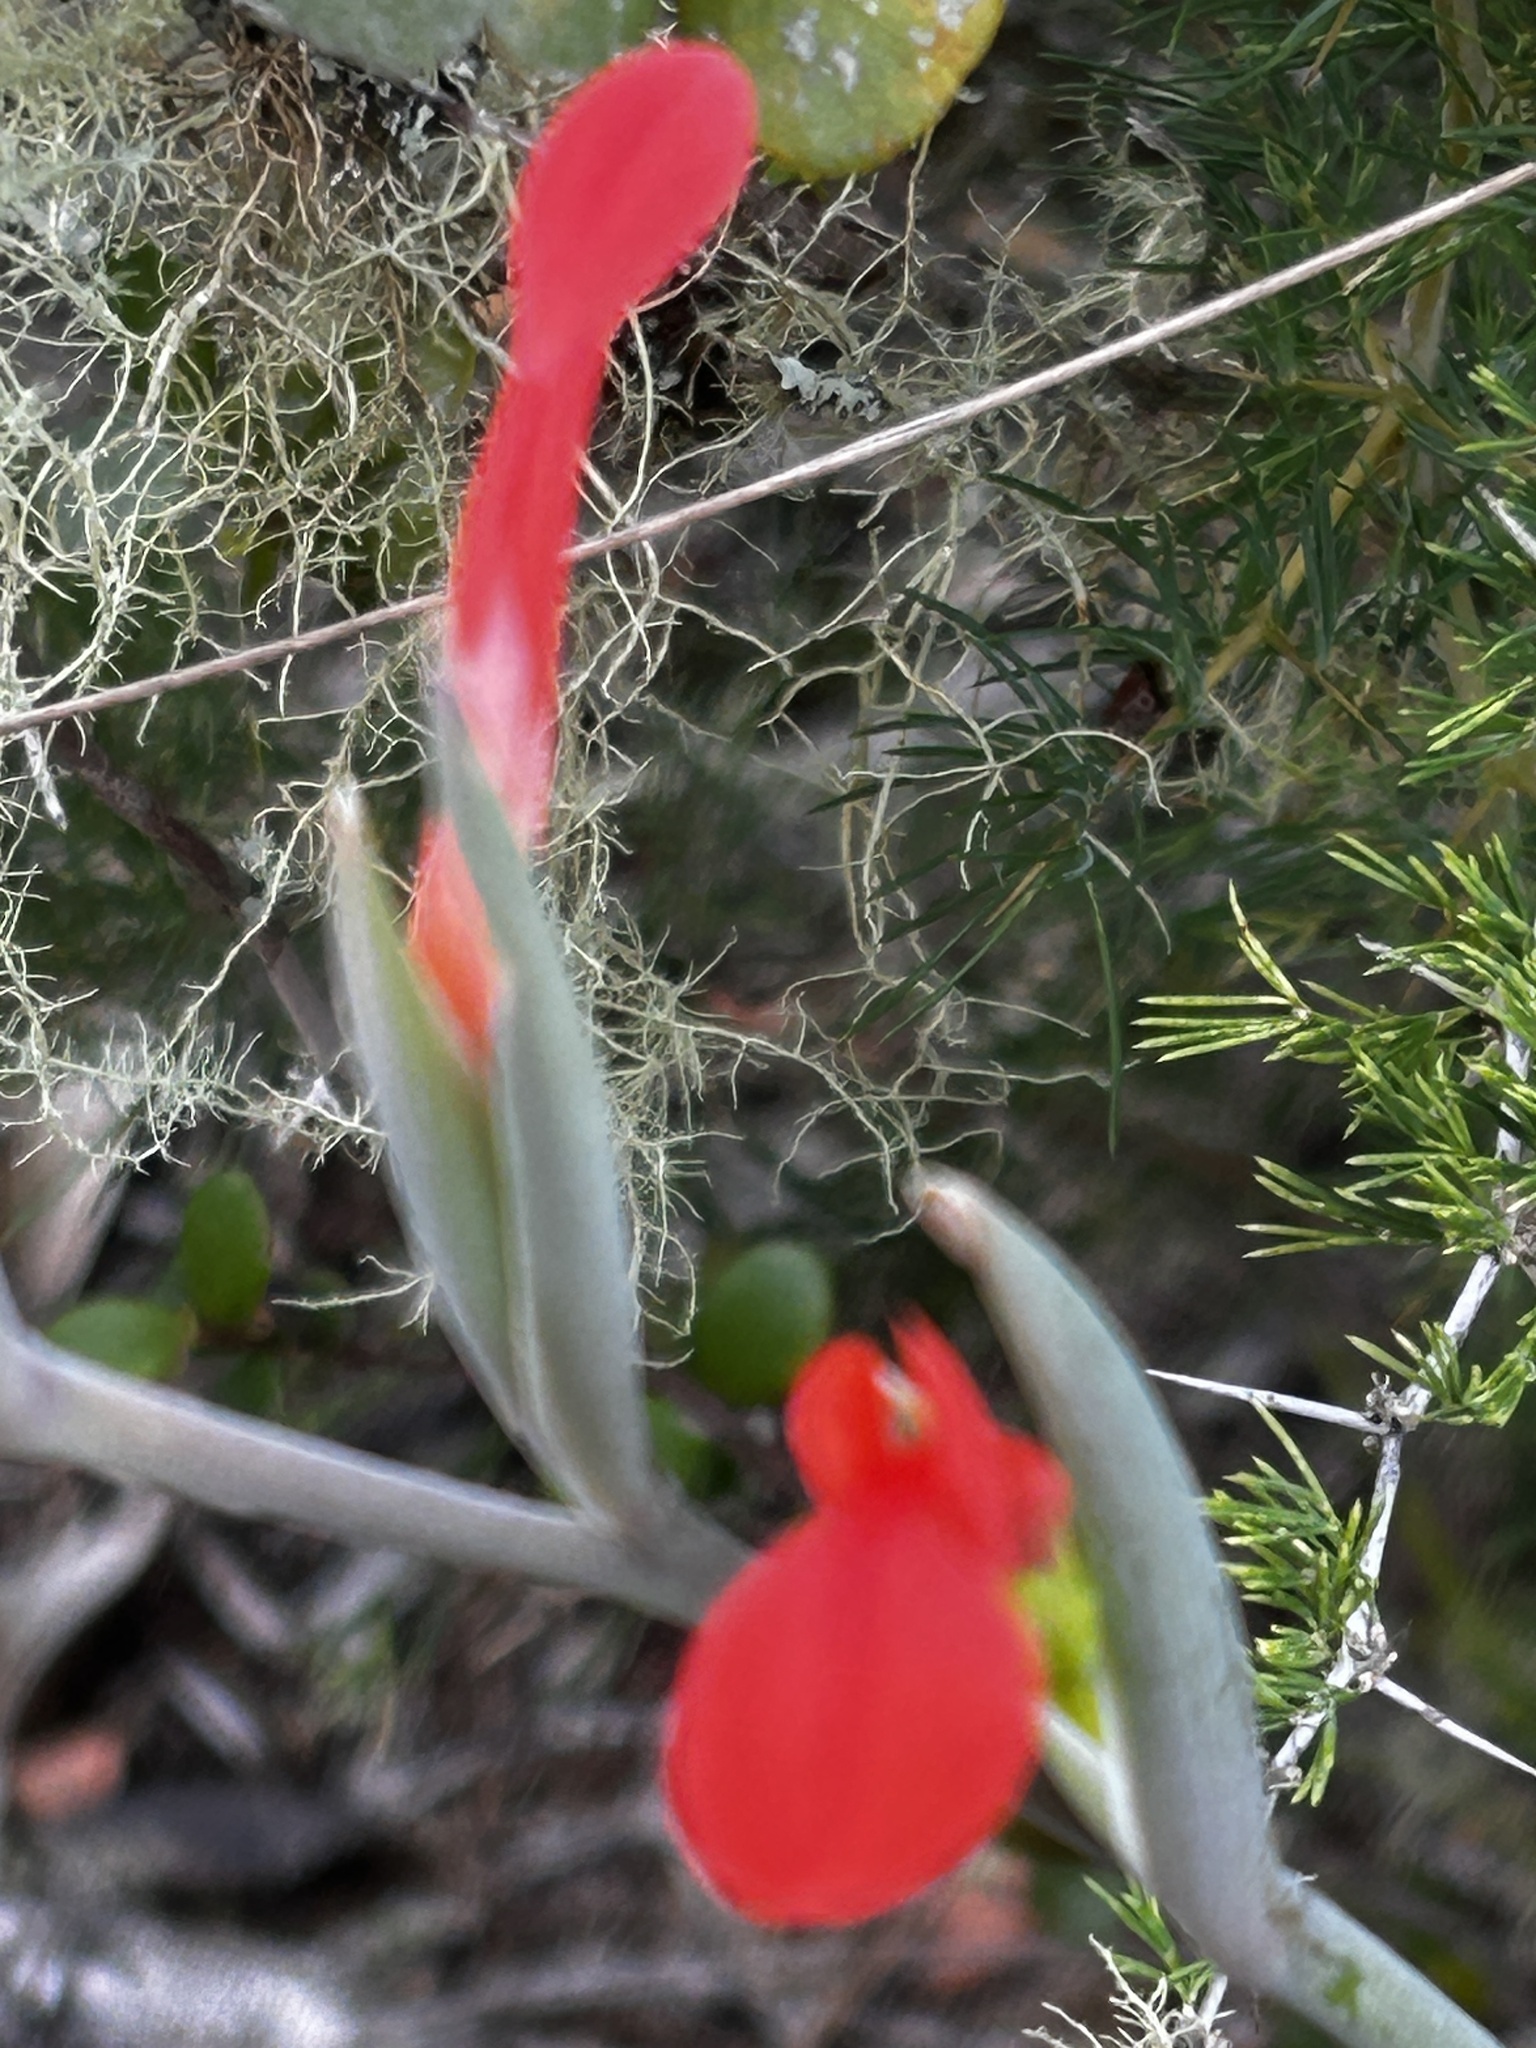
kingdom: Plantae
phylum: Tracheophyta
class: Liliopsida
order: Asparagales
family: Iridaceae
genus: Gladiolus
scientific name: Gladiolus cunonius
